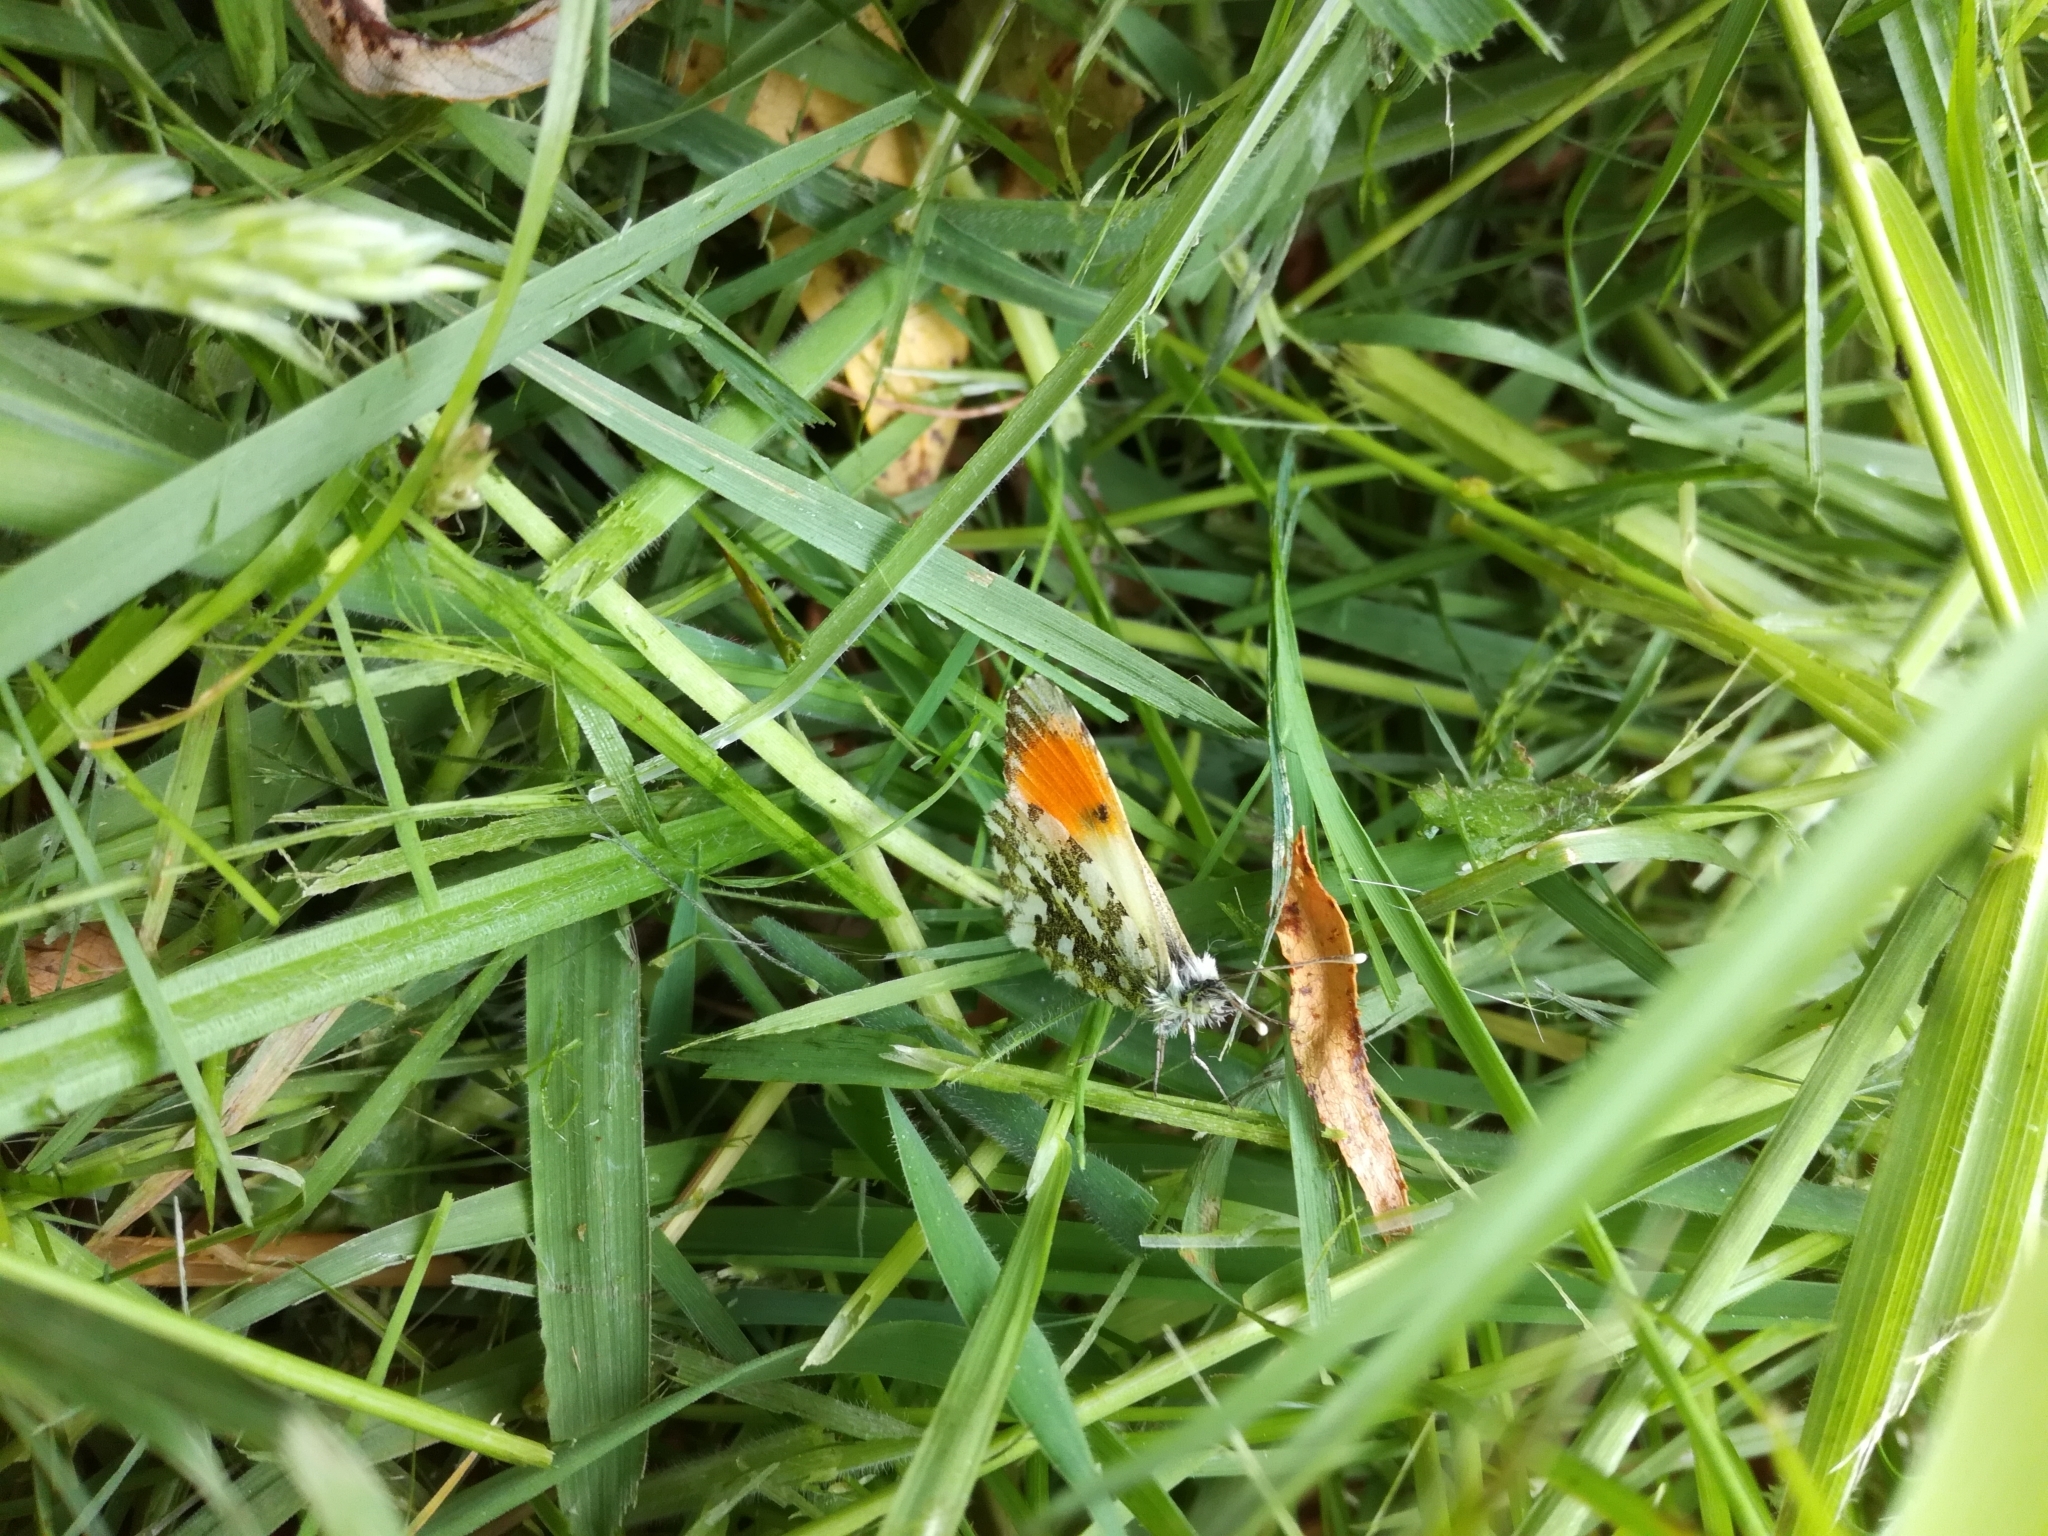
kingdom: Animalia
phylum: Arthropoda
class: Insecta
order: Lepidoptera
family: Pieridae
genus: Anthocharis
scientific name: Anthocharis cardamines
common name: Orange-tip
